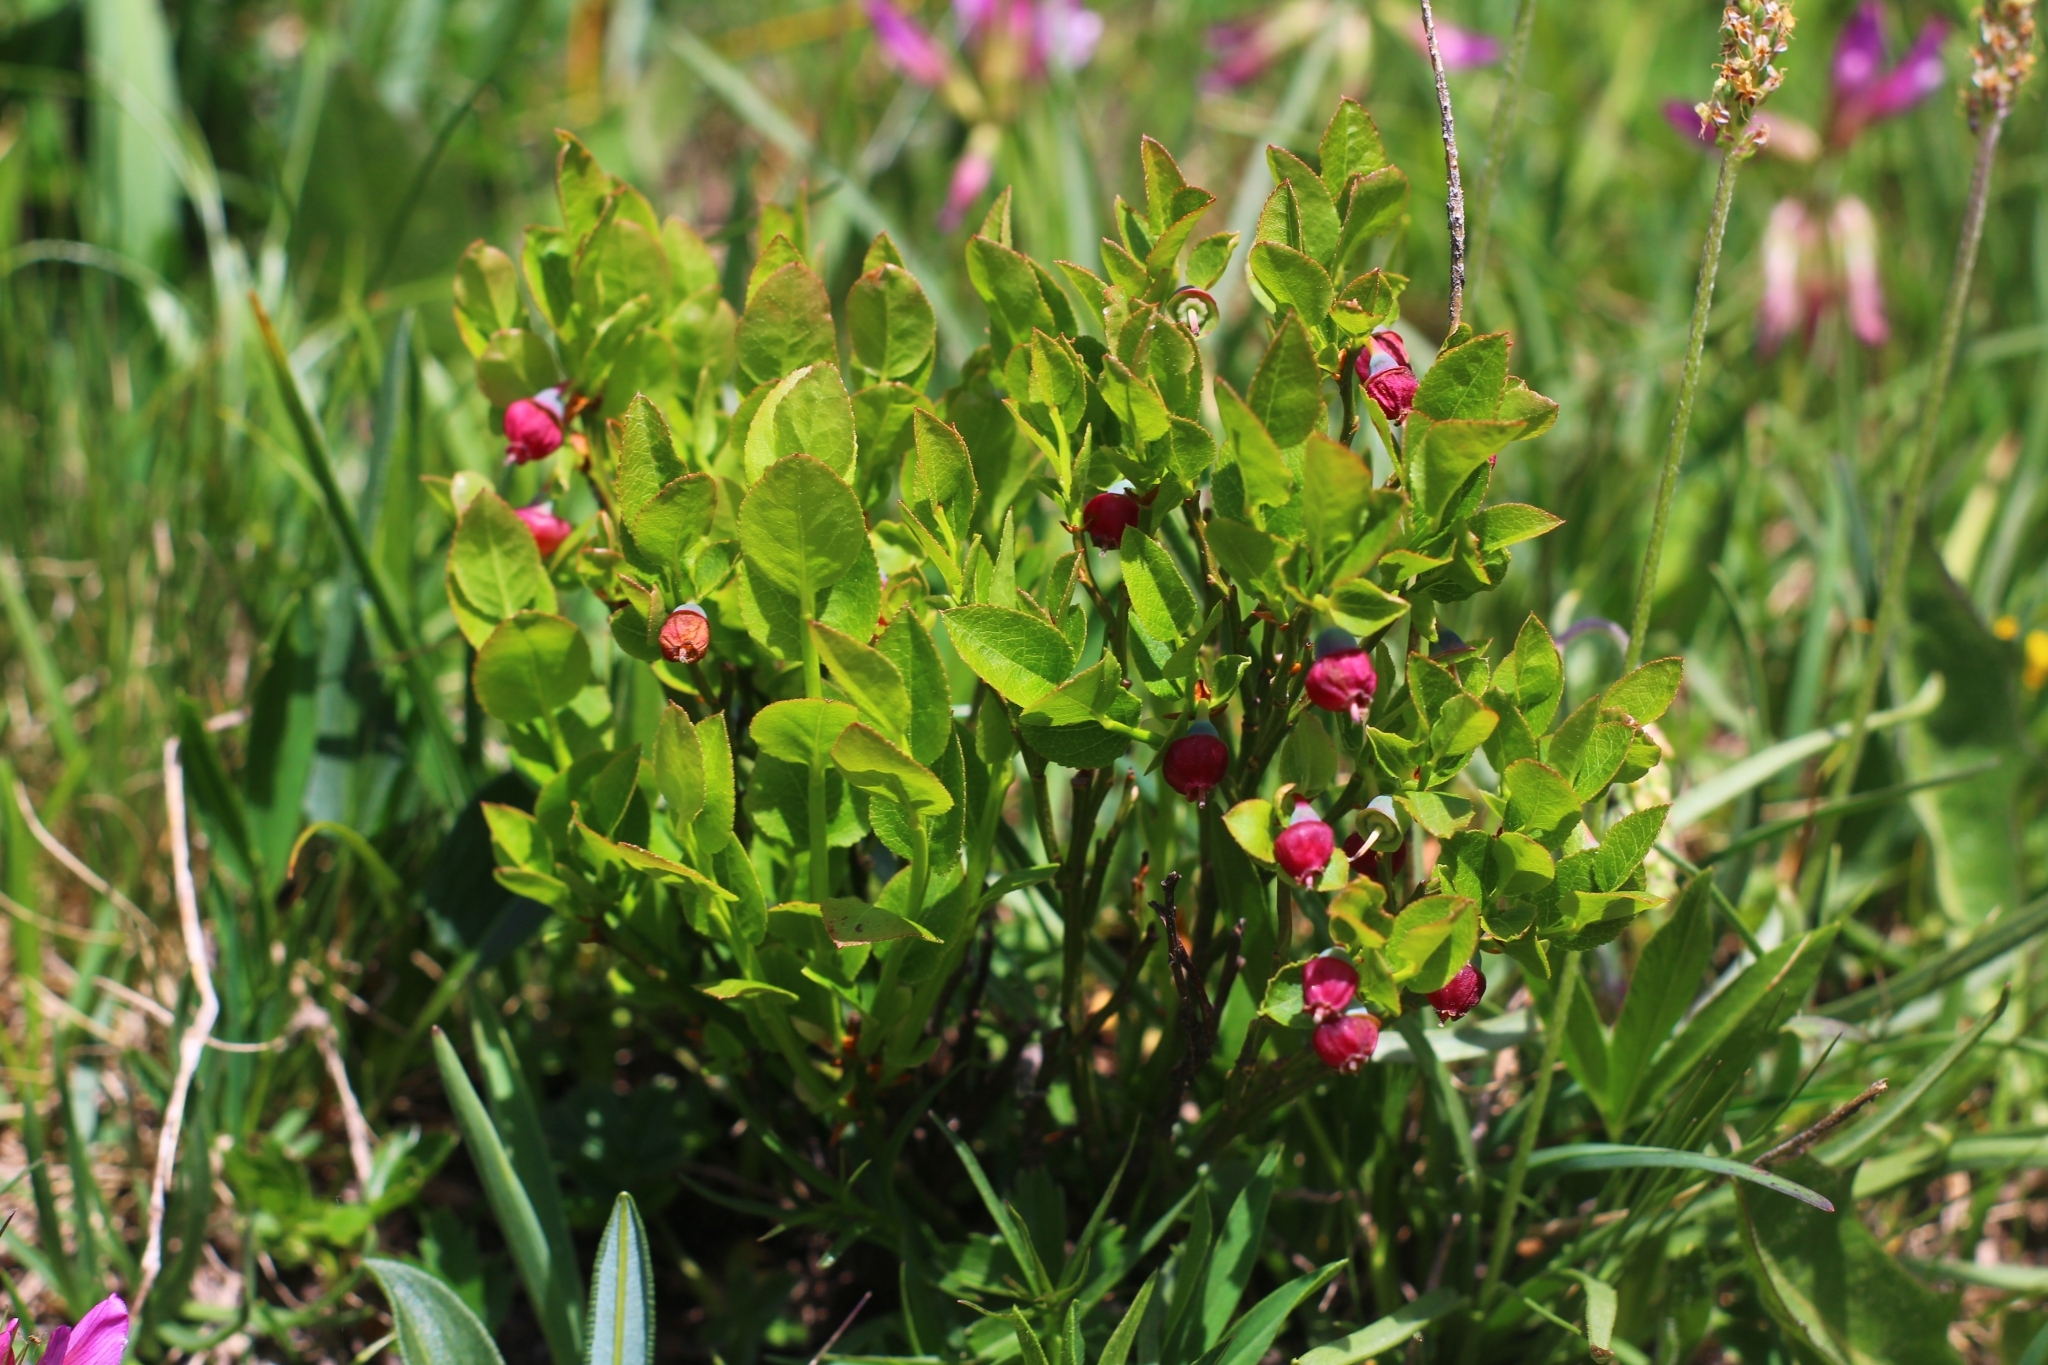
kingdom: Plantae
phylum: Tracheophyta
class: Magnoliopsida
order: Ericales
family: Ericaceae
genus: Vaccinium
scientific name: Vaccinium myrtillus
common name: Bilberry
